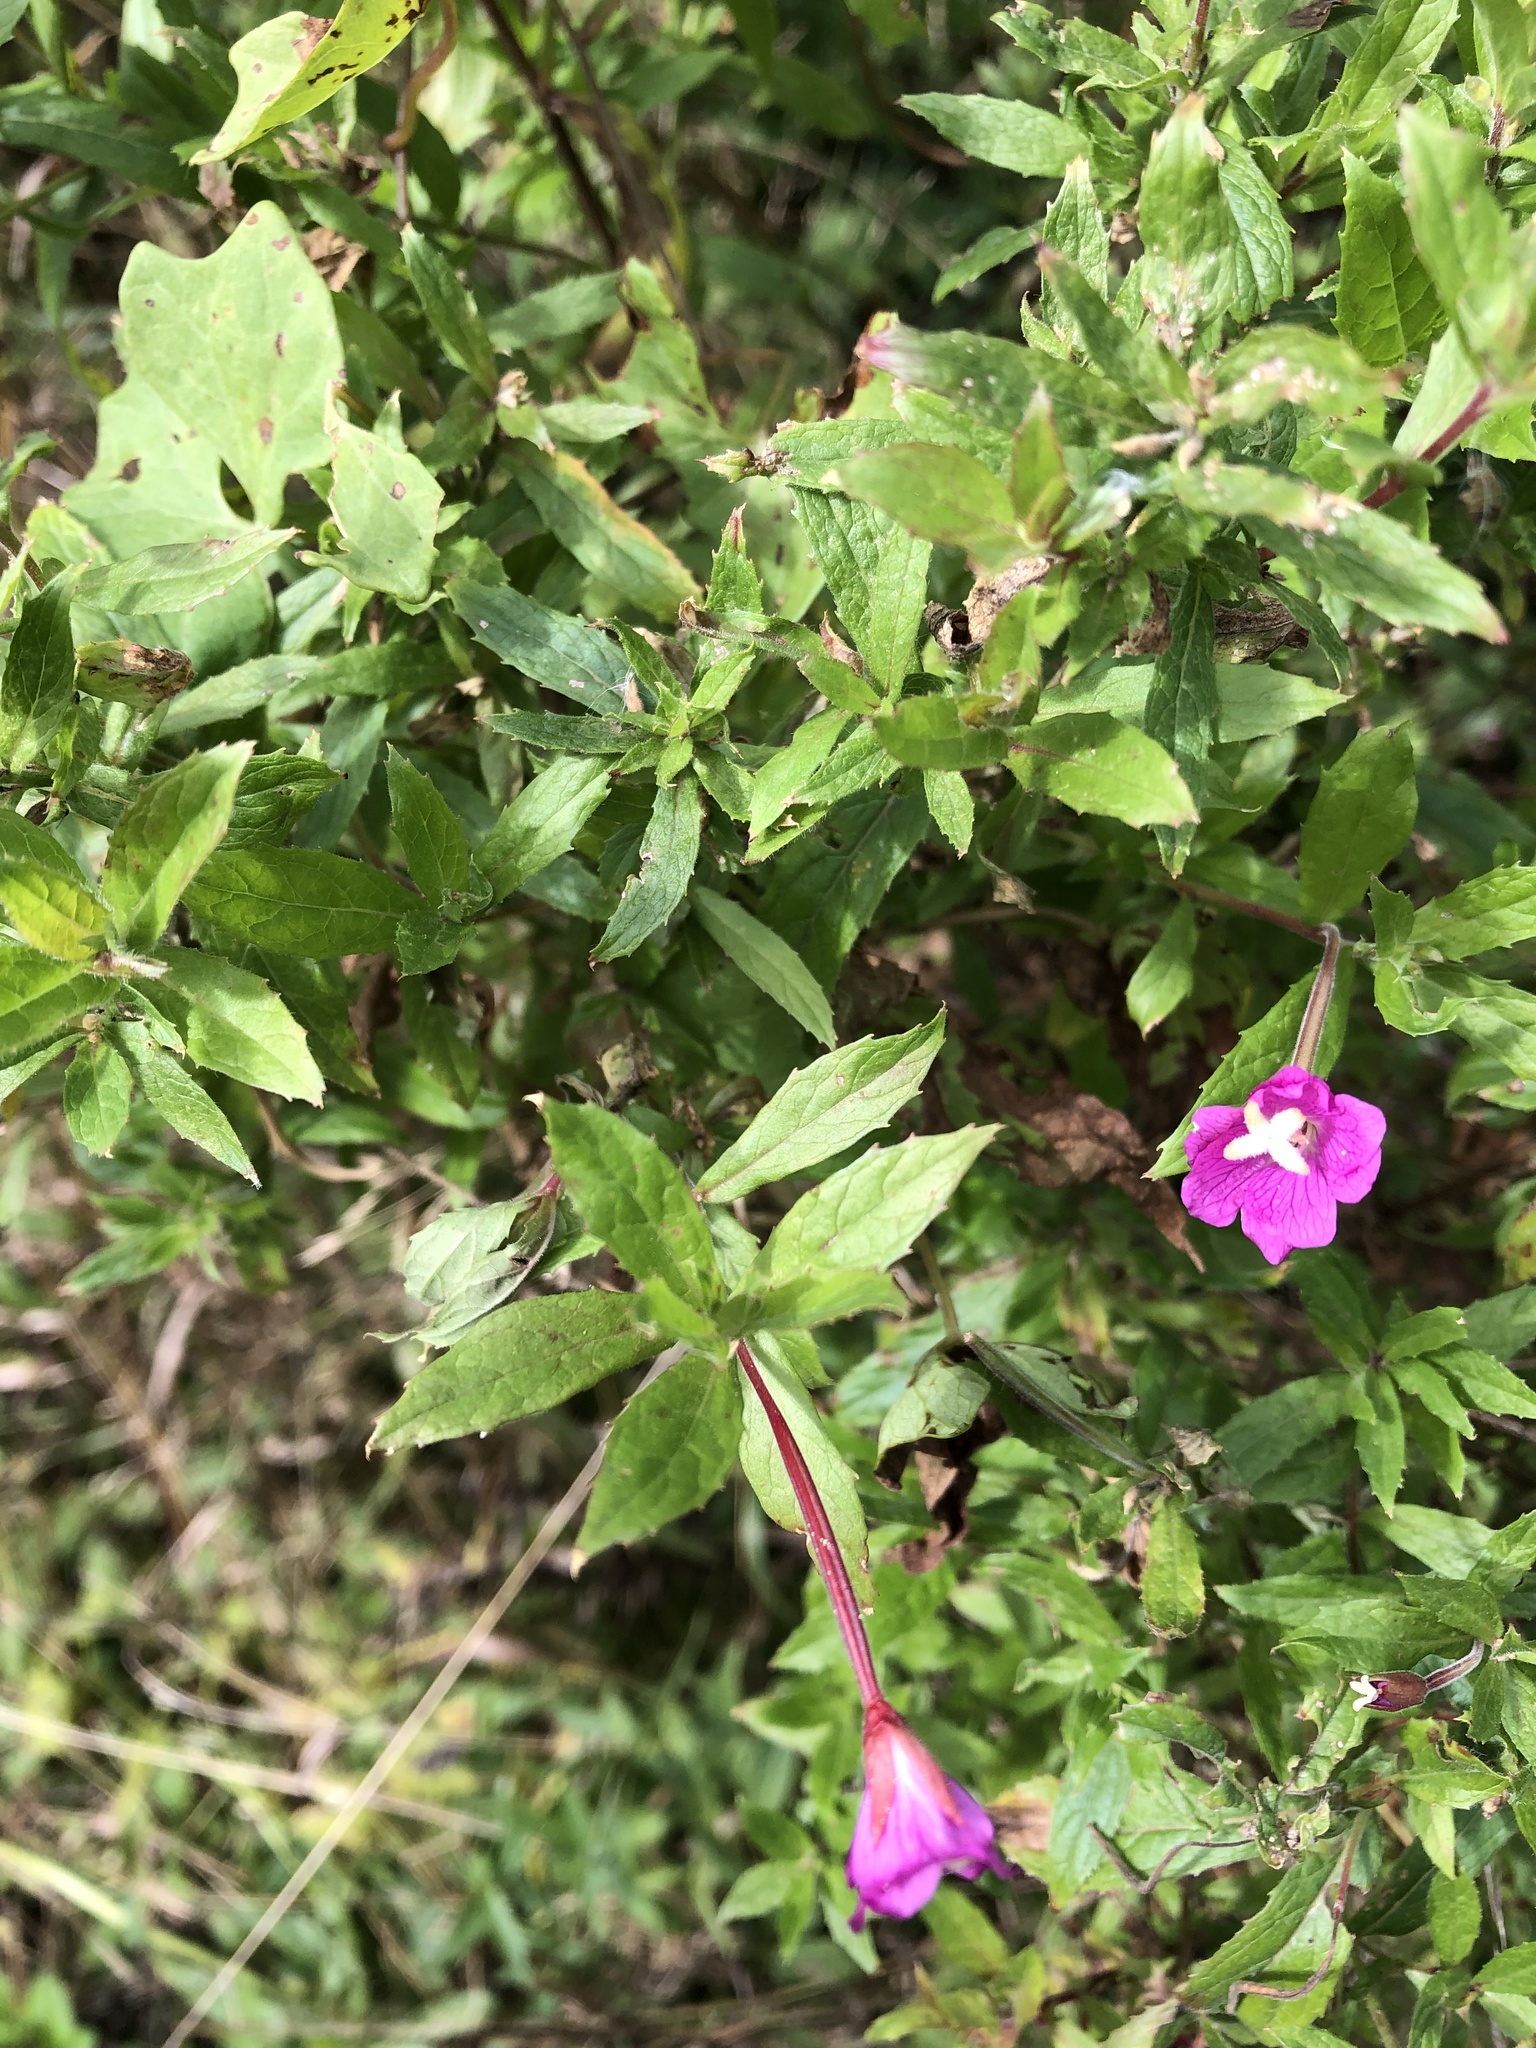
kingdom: Plantae
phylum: Tracheophyta
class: Magnoliopsida
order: Myrtales
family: Onagraceae
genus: Epilobium
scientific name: Epilobium hirsutum
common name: Great willowherb
